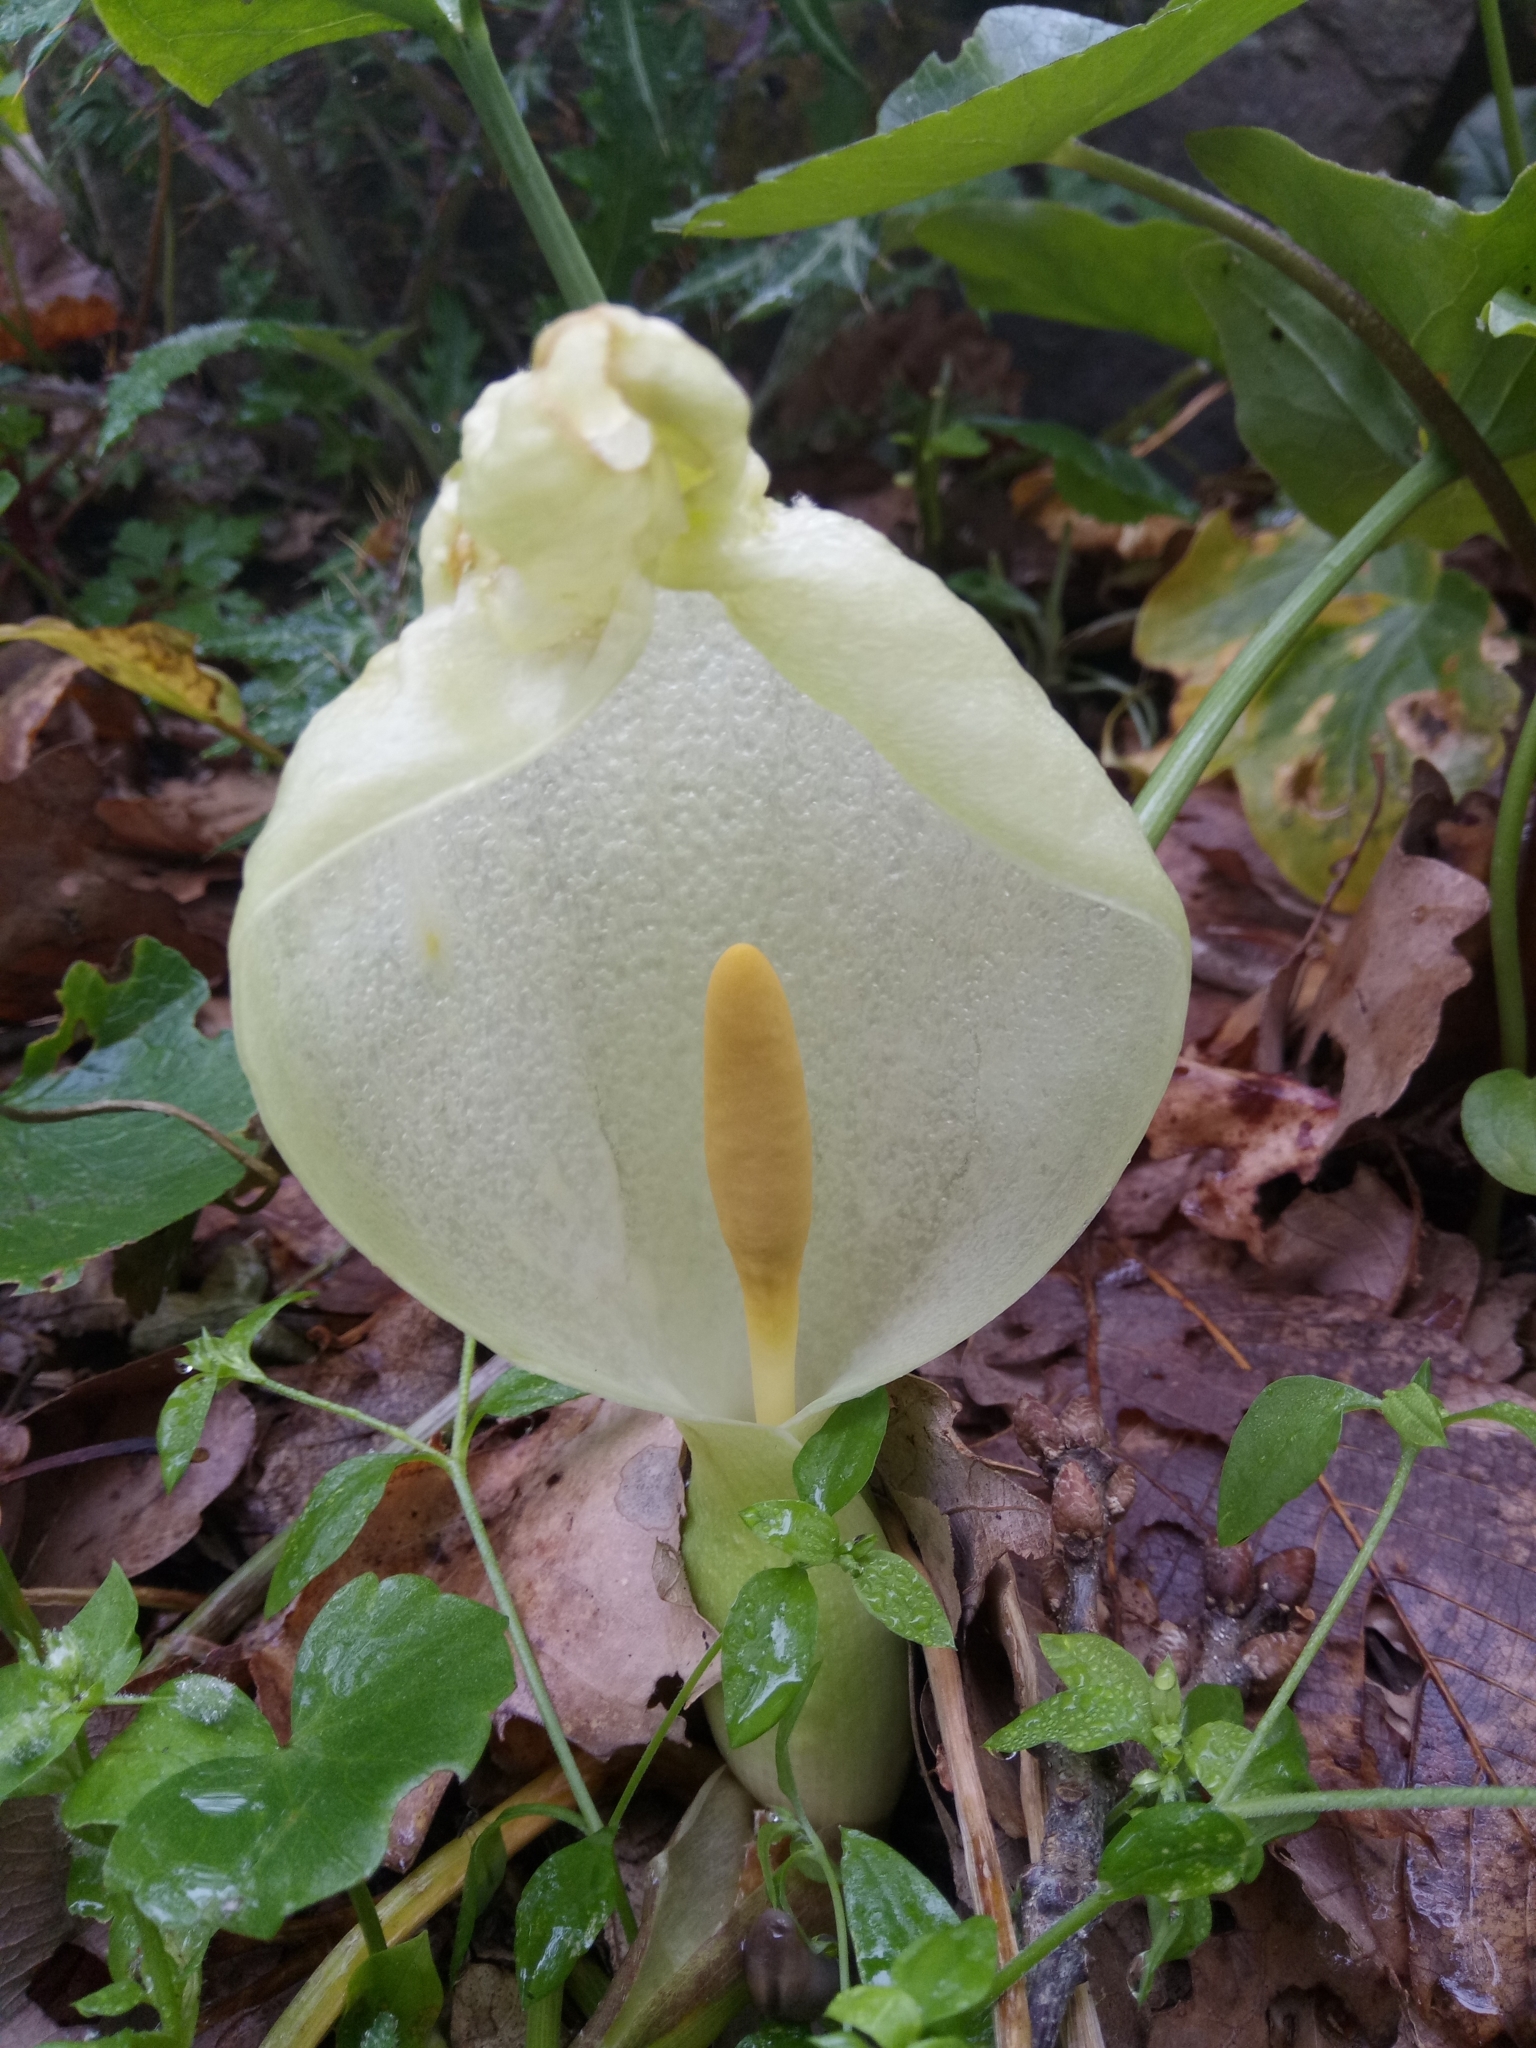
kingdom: Plantae
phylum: Tracheophyta
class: Liliopsida
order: Alismatales
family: Araceae
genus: Arum
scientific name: Arum italicum
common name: Italian lords-and-ladies
